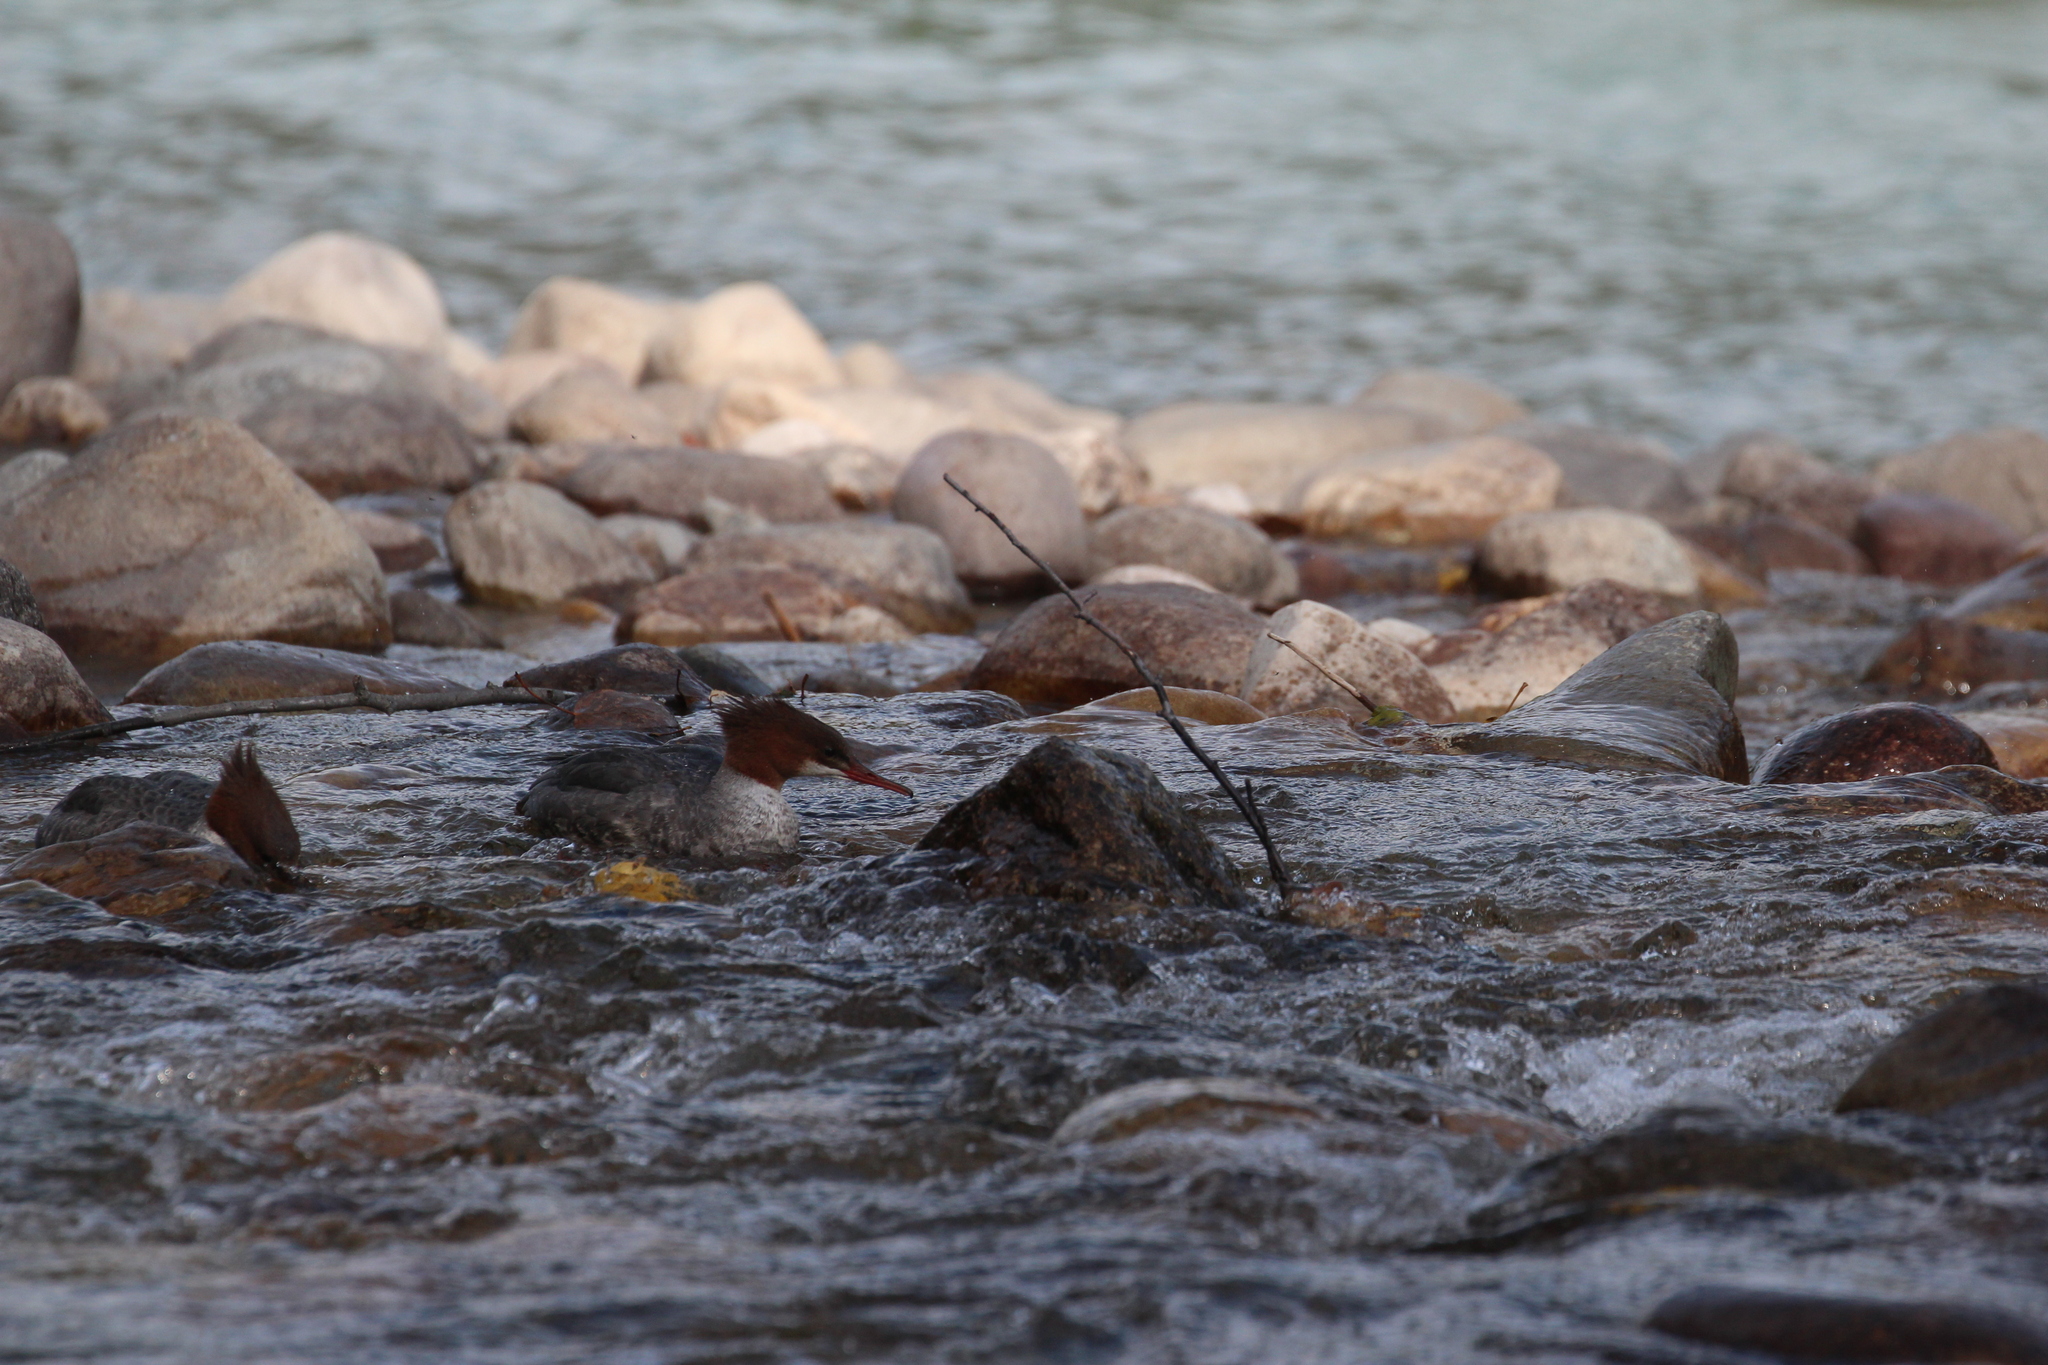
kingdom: Animalia
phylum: Chordata
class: Aves
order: Anseriformes
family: Anatidae
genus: Mergus
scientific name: Mergus merganser
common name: Common merganser
